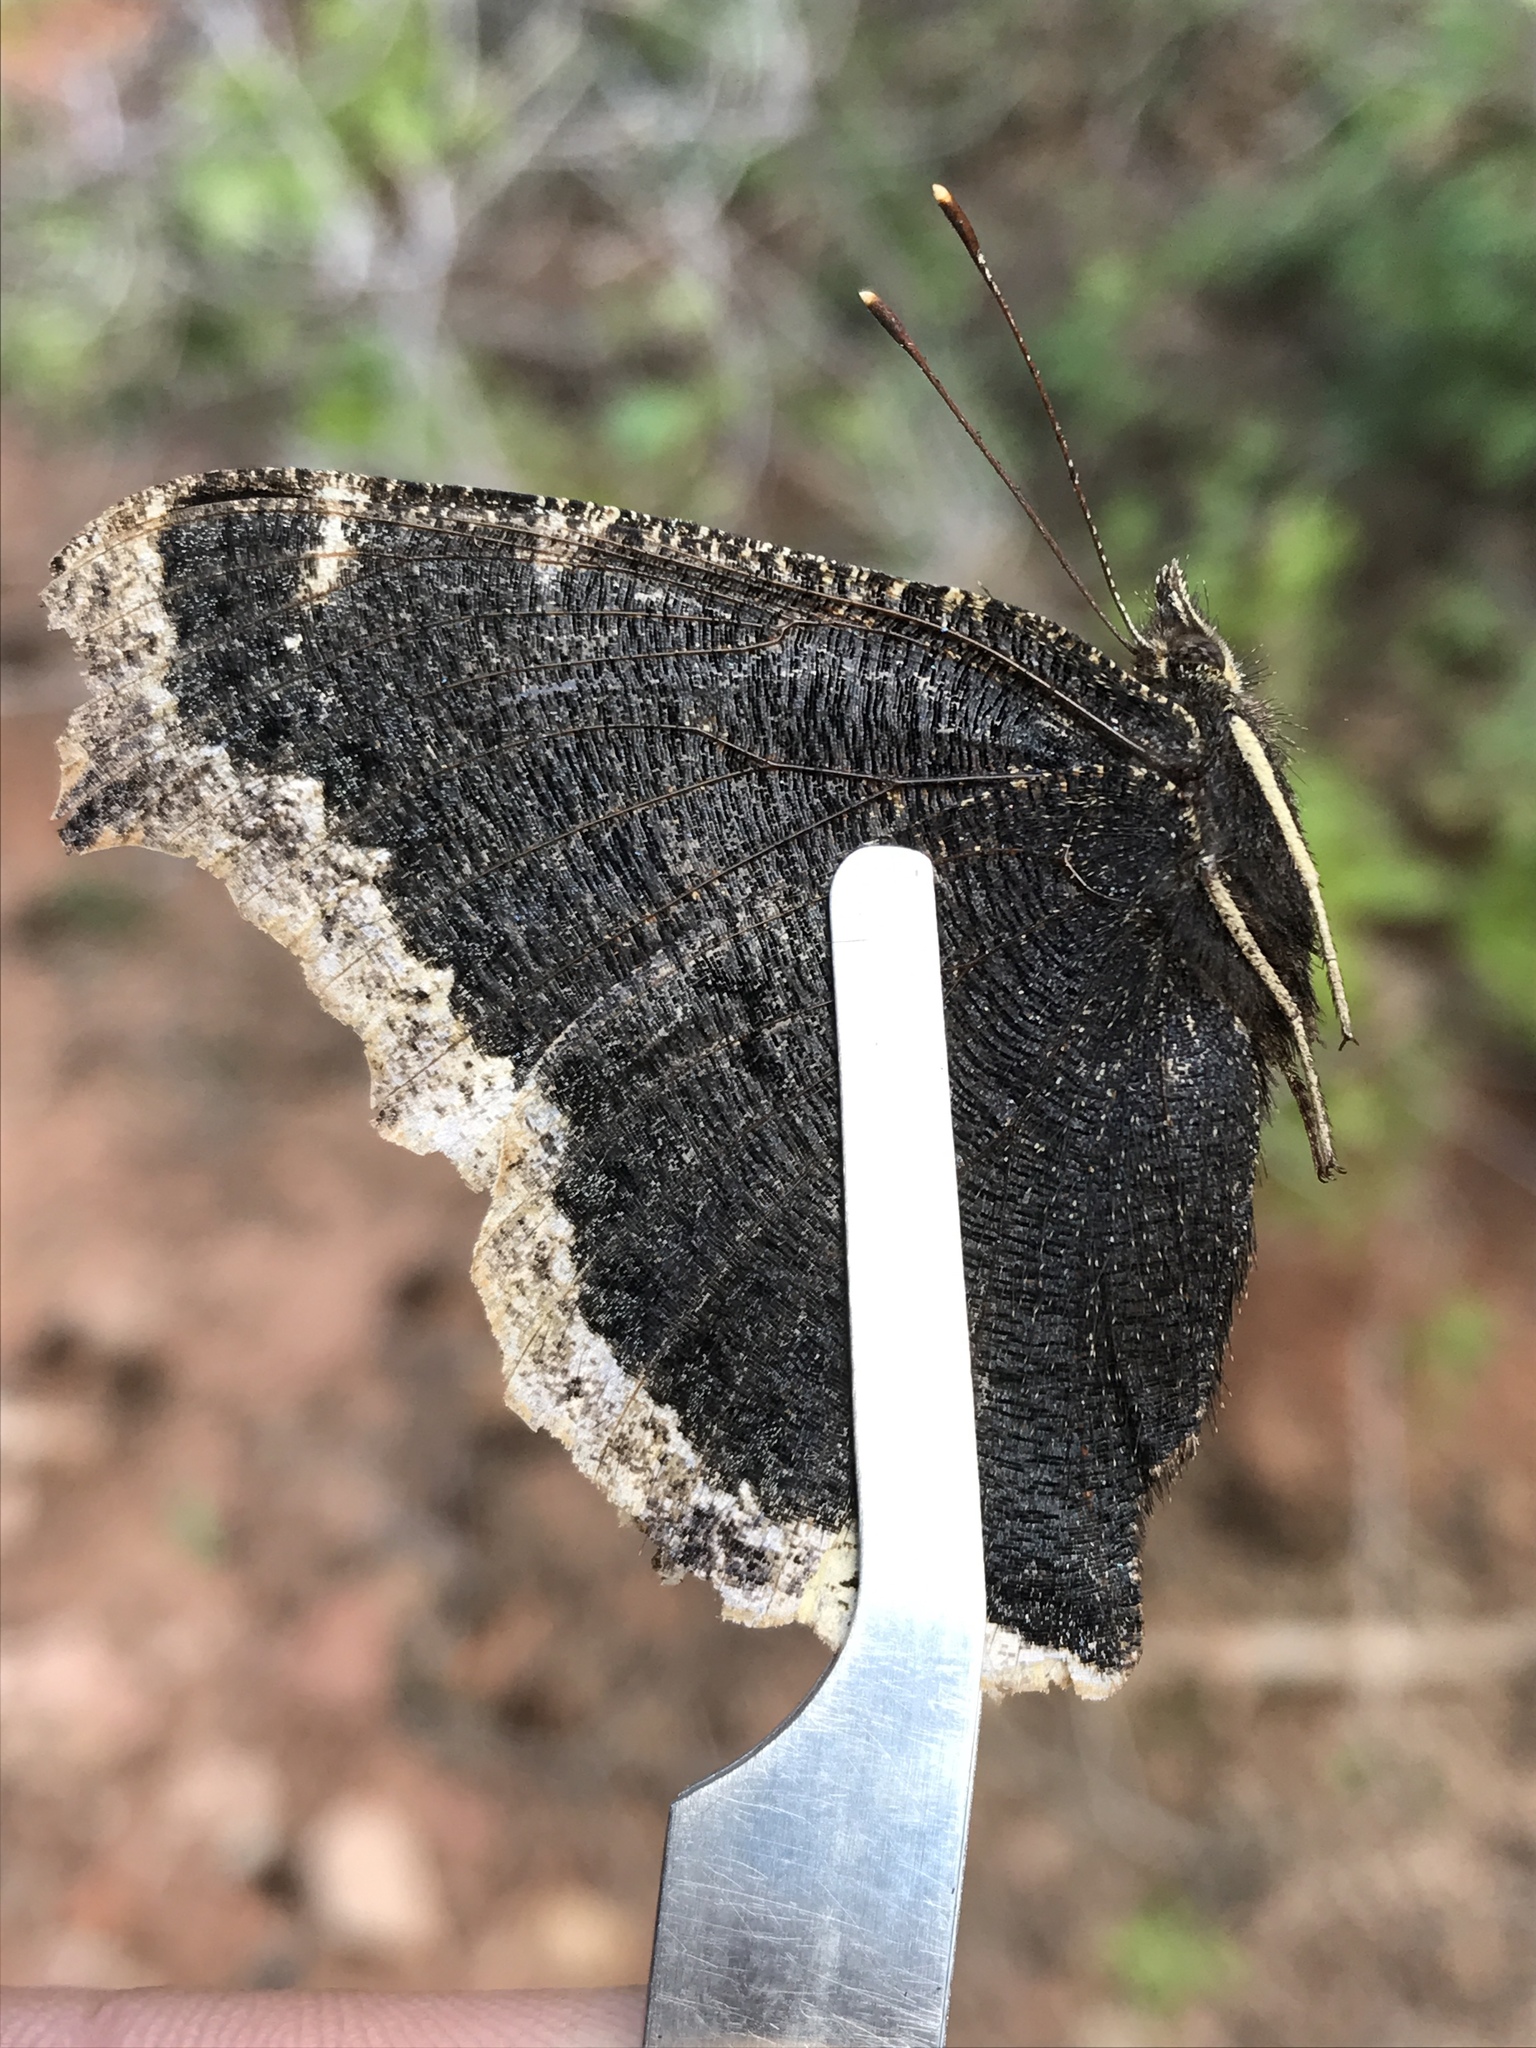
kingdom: Animalia
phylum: Arthropoda
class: Insecta
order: Lepidoptera
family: Nymphalidae
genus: Nymphalis
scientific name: Nymphalis antiopa
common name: Camberwell beauty
